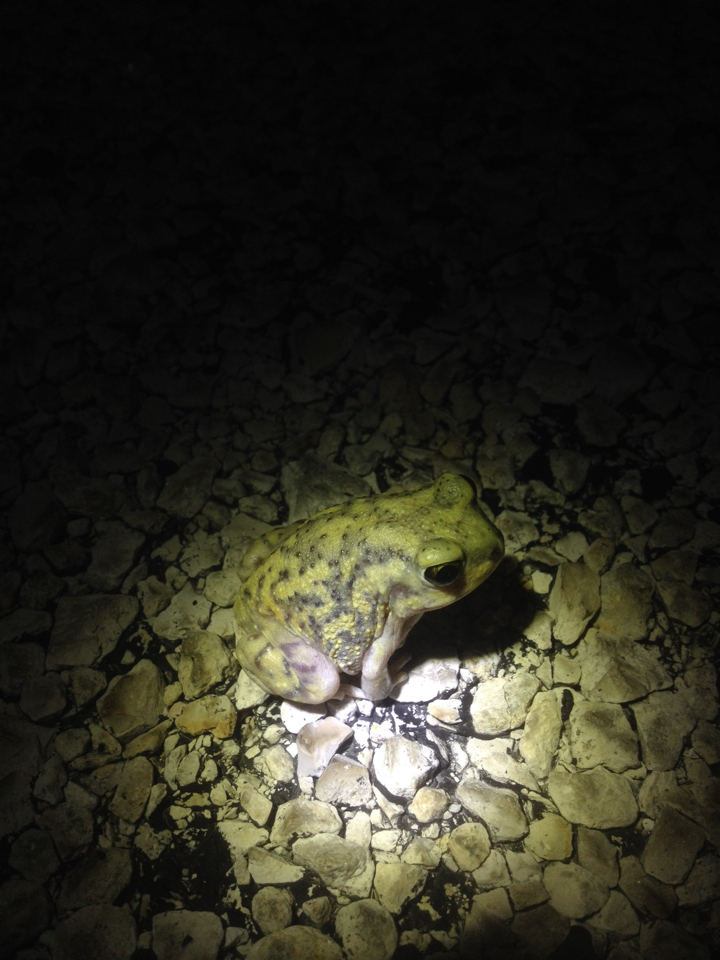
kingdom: Animalia
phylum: Chordata
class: Amphibia
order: Anura
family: Scaphiopodidae
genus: Scaphiopus
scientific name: Scaphiopus couchii
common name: Couch's spadefoot toad
